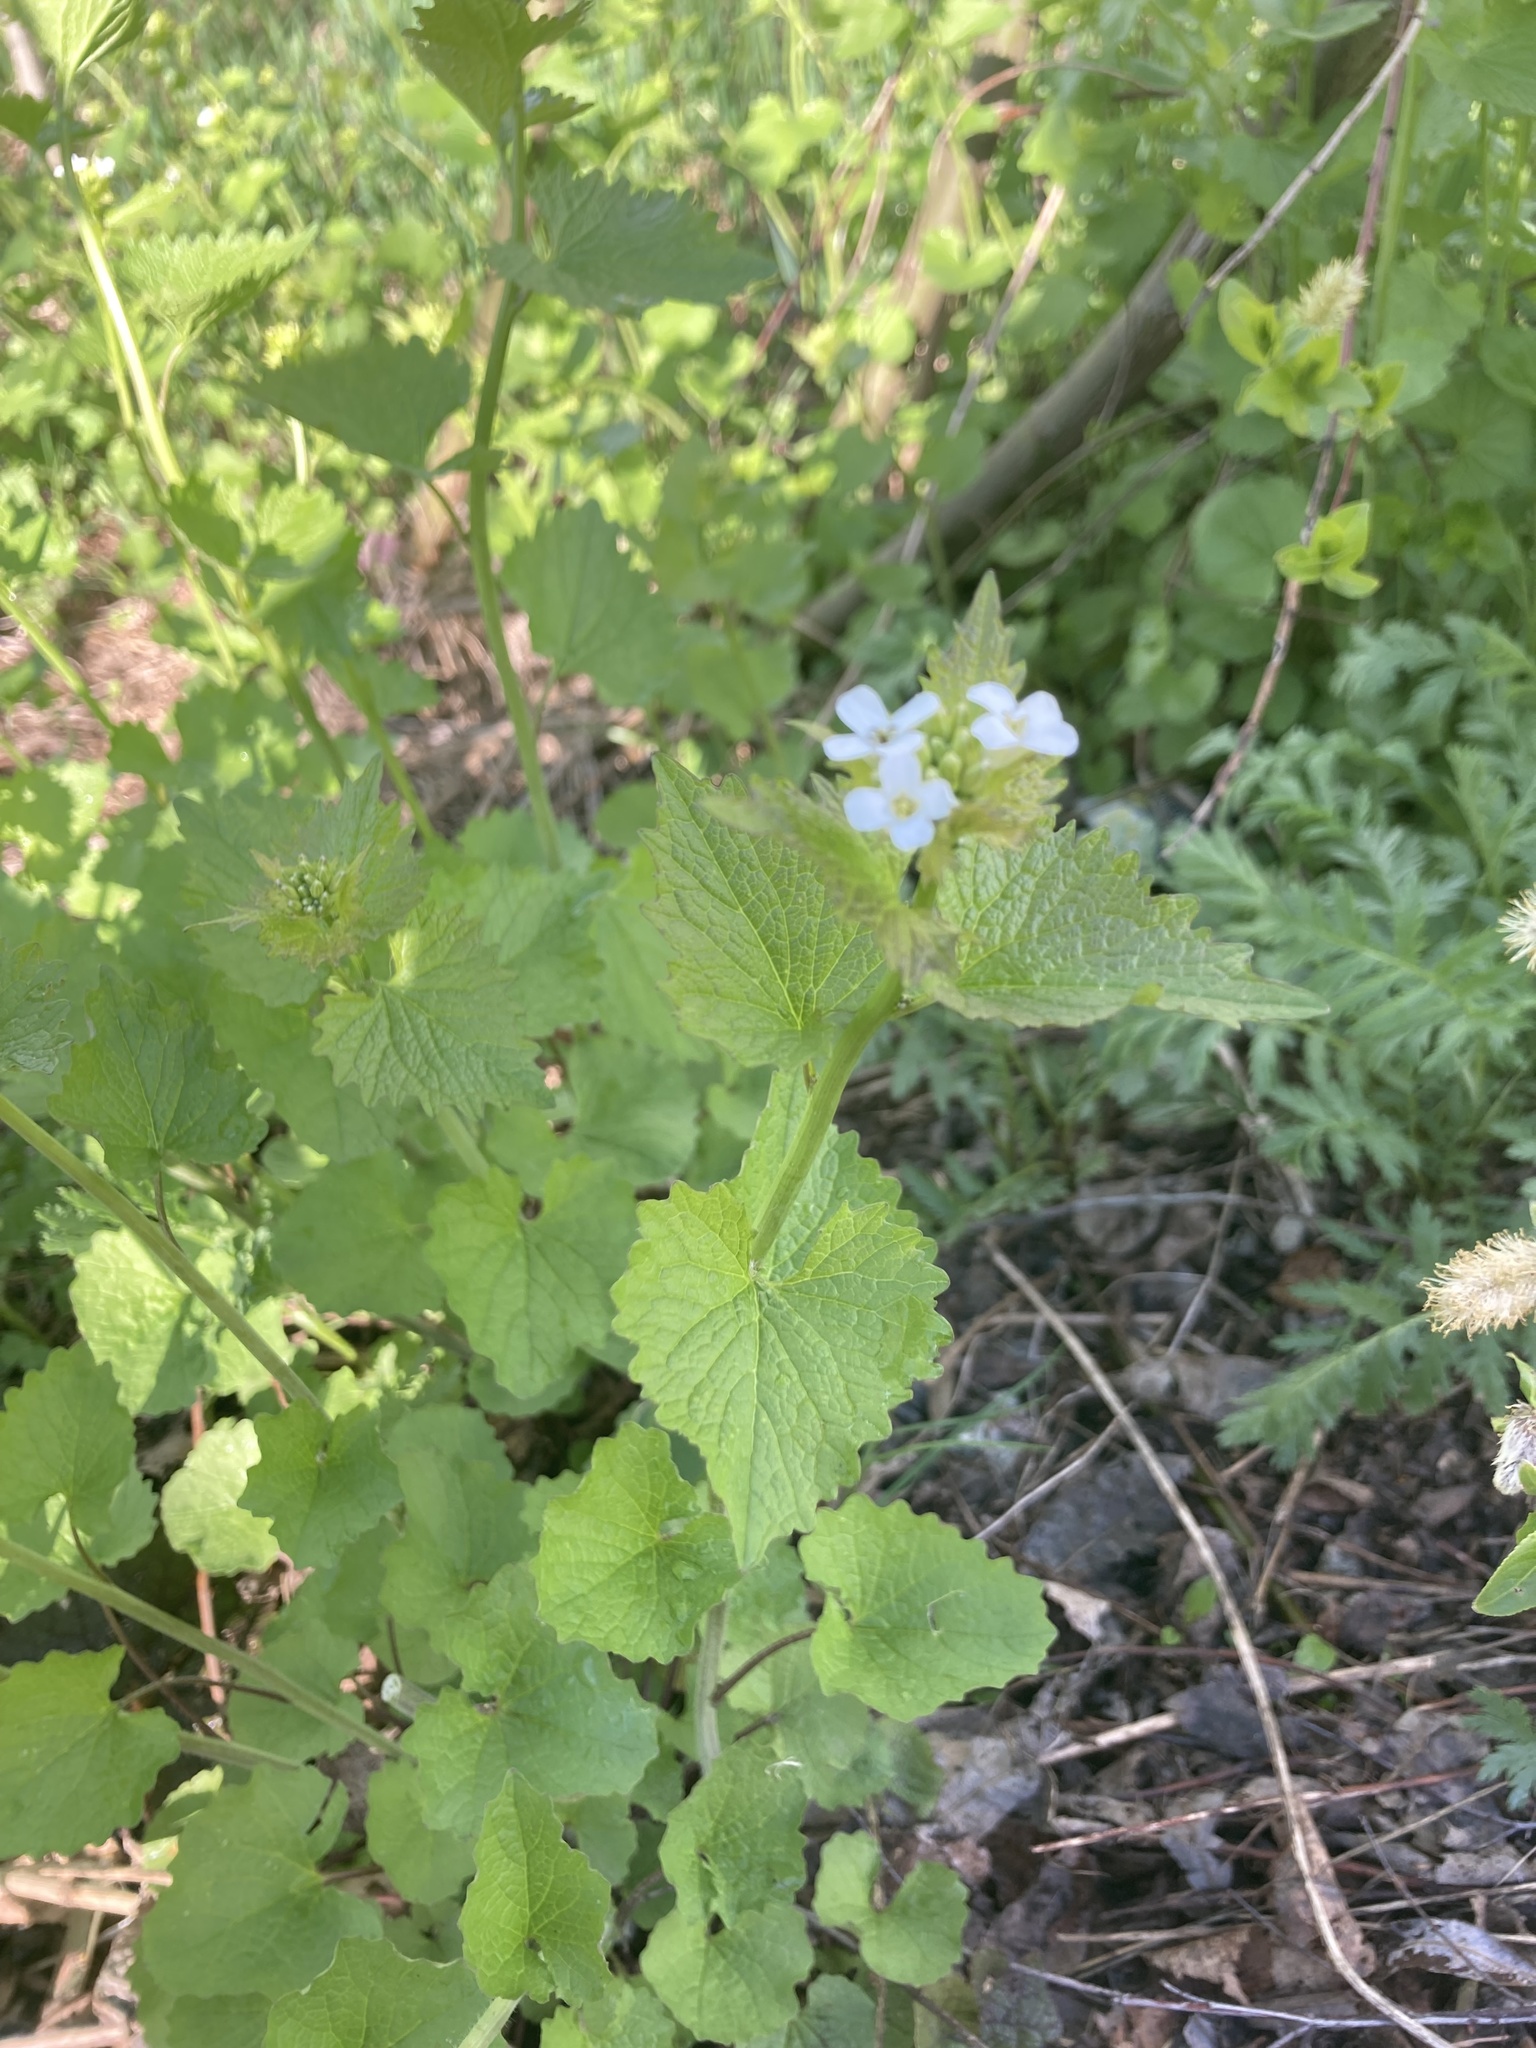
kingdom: Plantae
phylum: Tracheophyta
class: Magnoliopsida
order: Brassicales
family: Brassicaceae
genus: Alliaria
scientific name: Alliaria petiolata
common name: Garlic mustard
